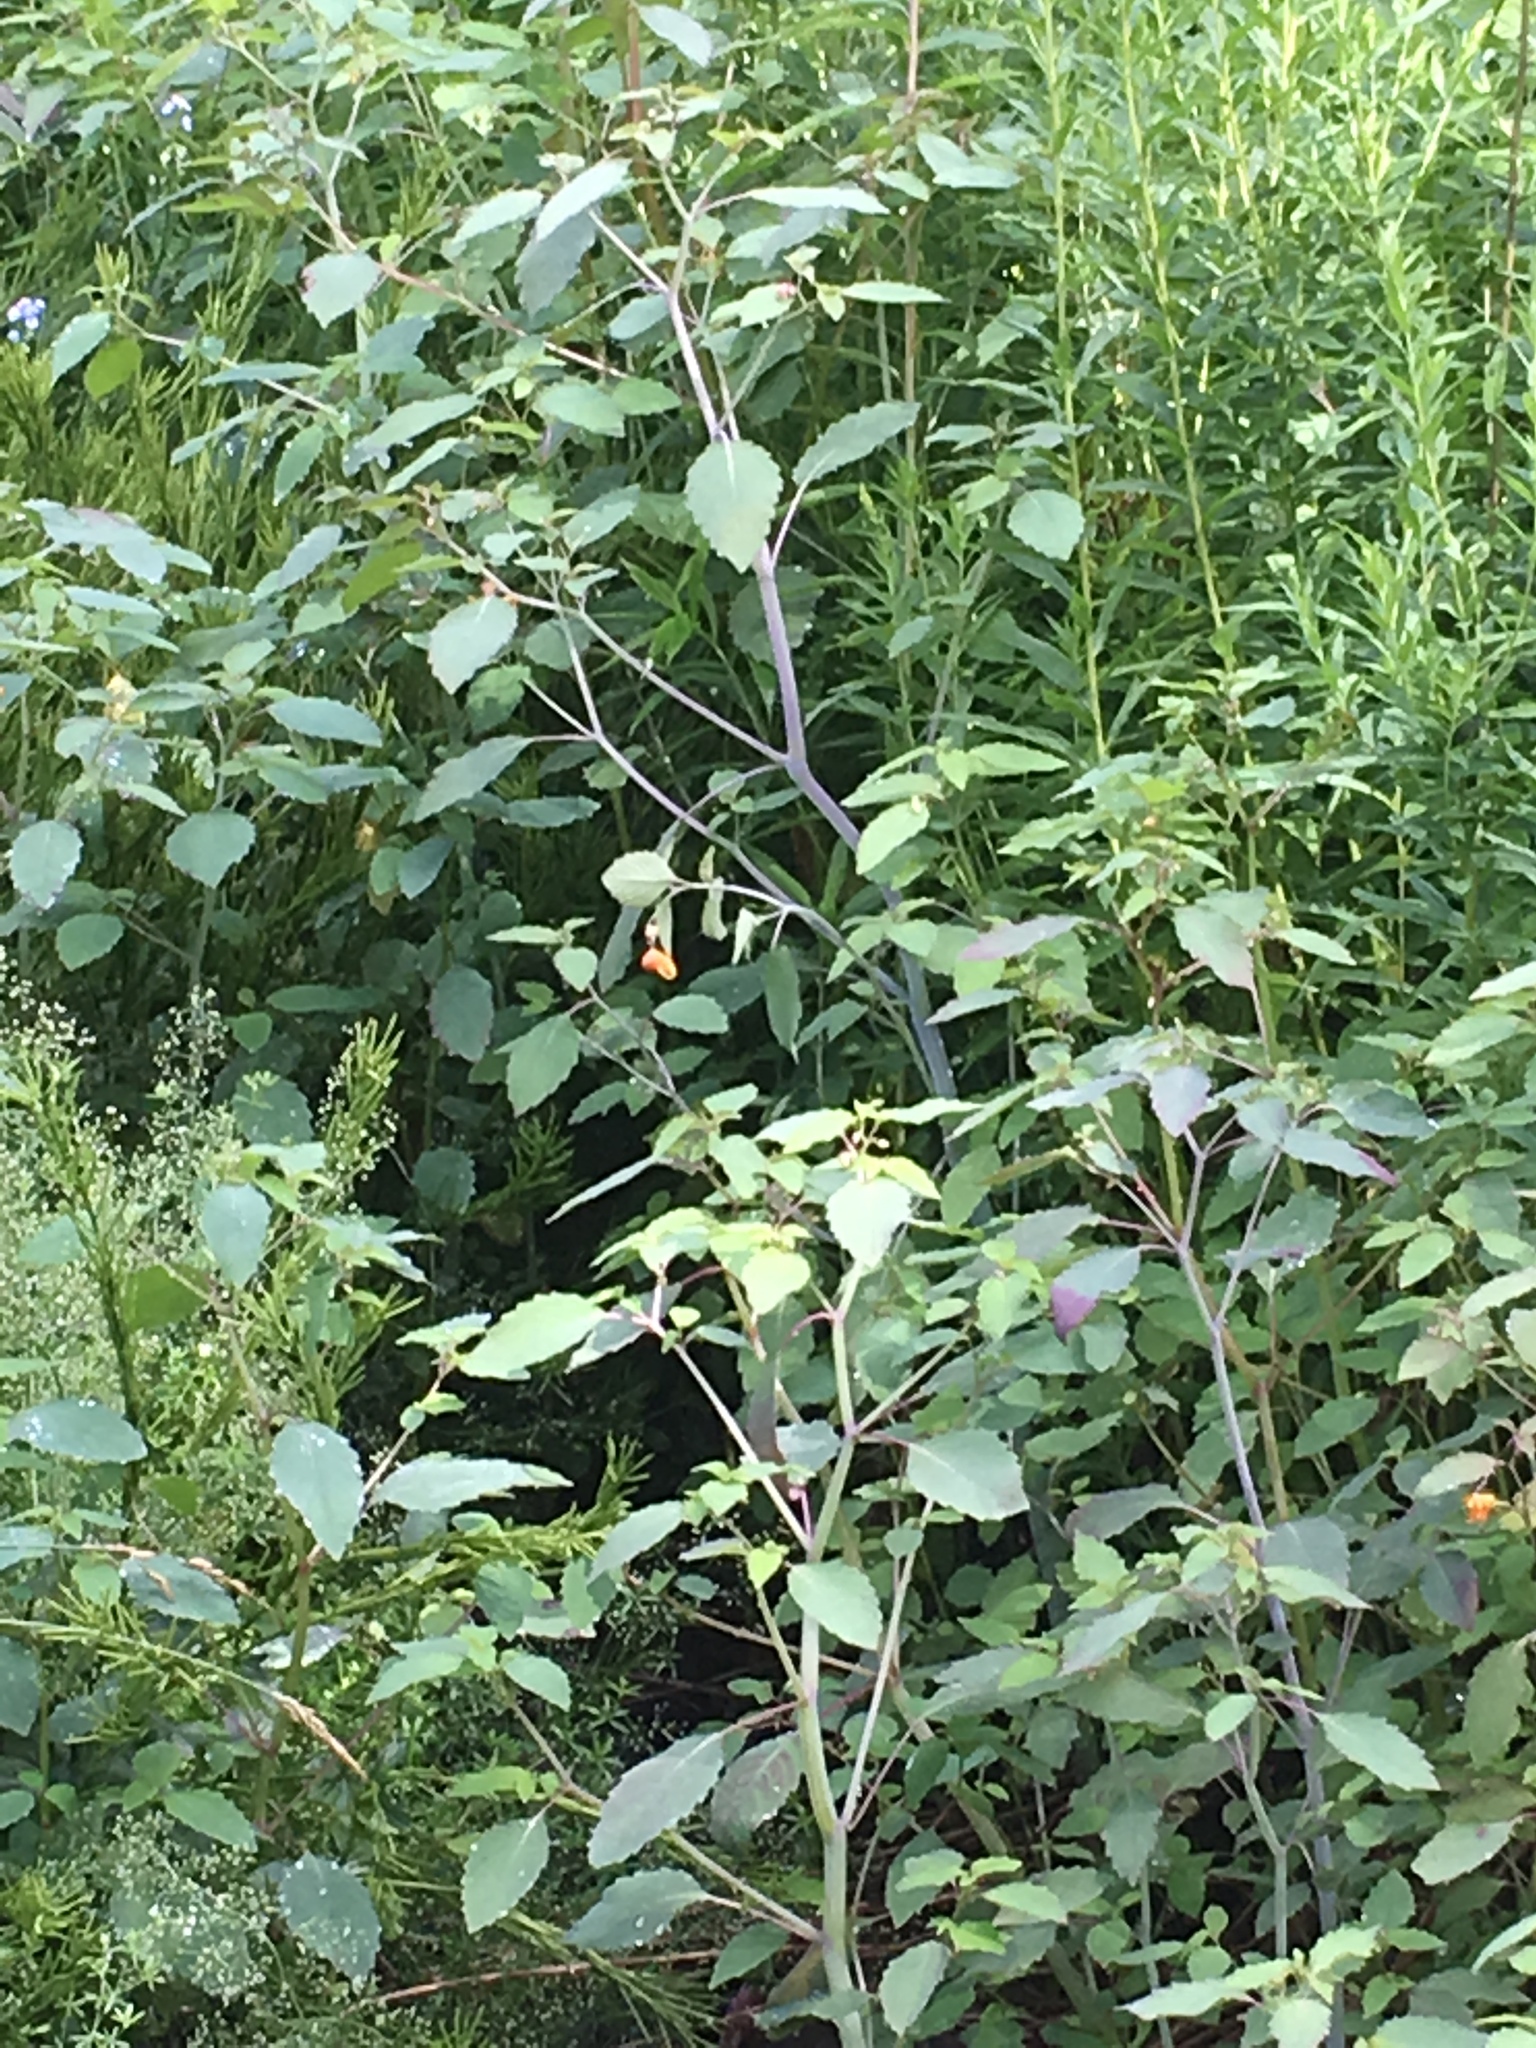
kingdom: Plantae
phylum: Tracheophyta
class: Magnoliopsida
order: Ericales
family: Balsaminaceae
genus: Impatiens
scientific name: Impatiens capensis
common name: Orange balsam
